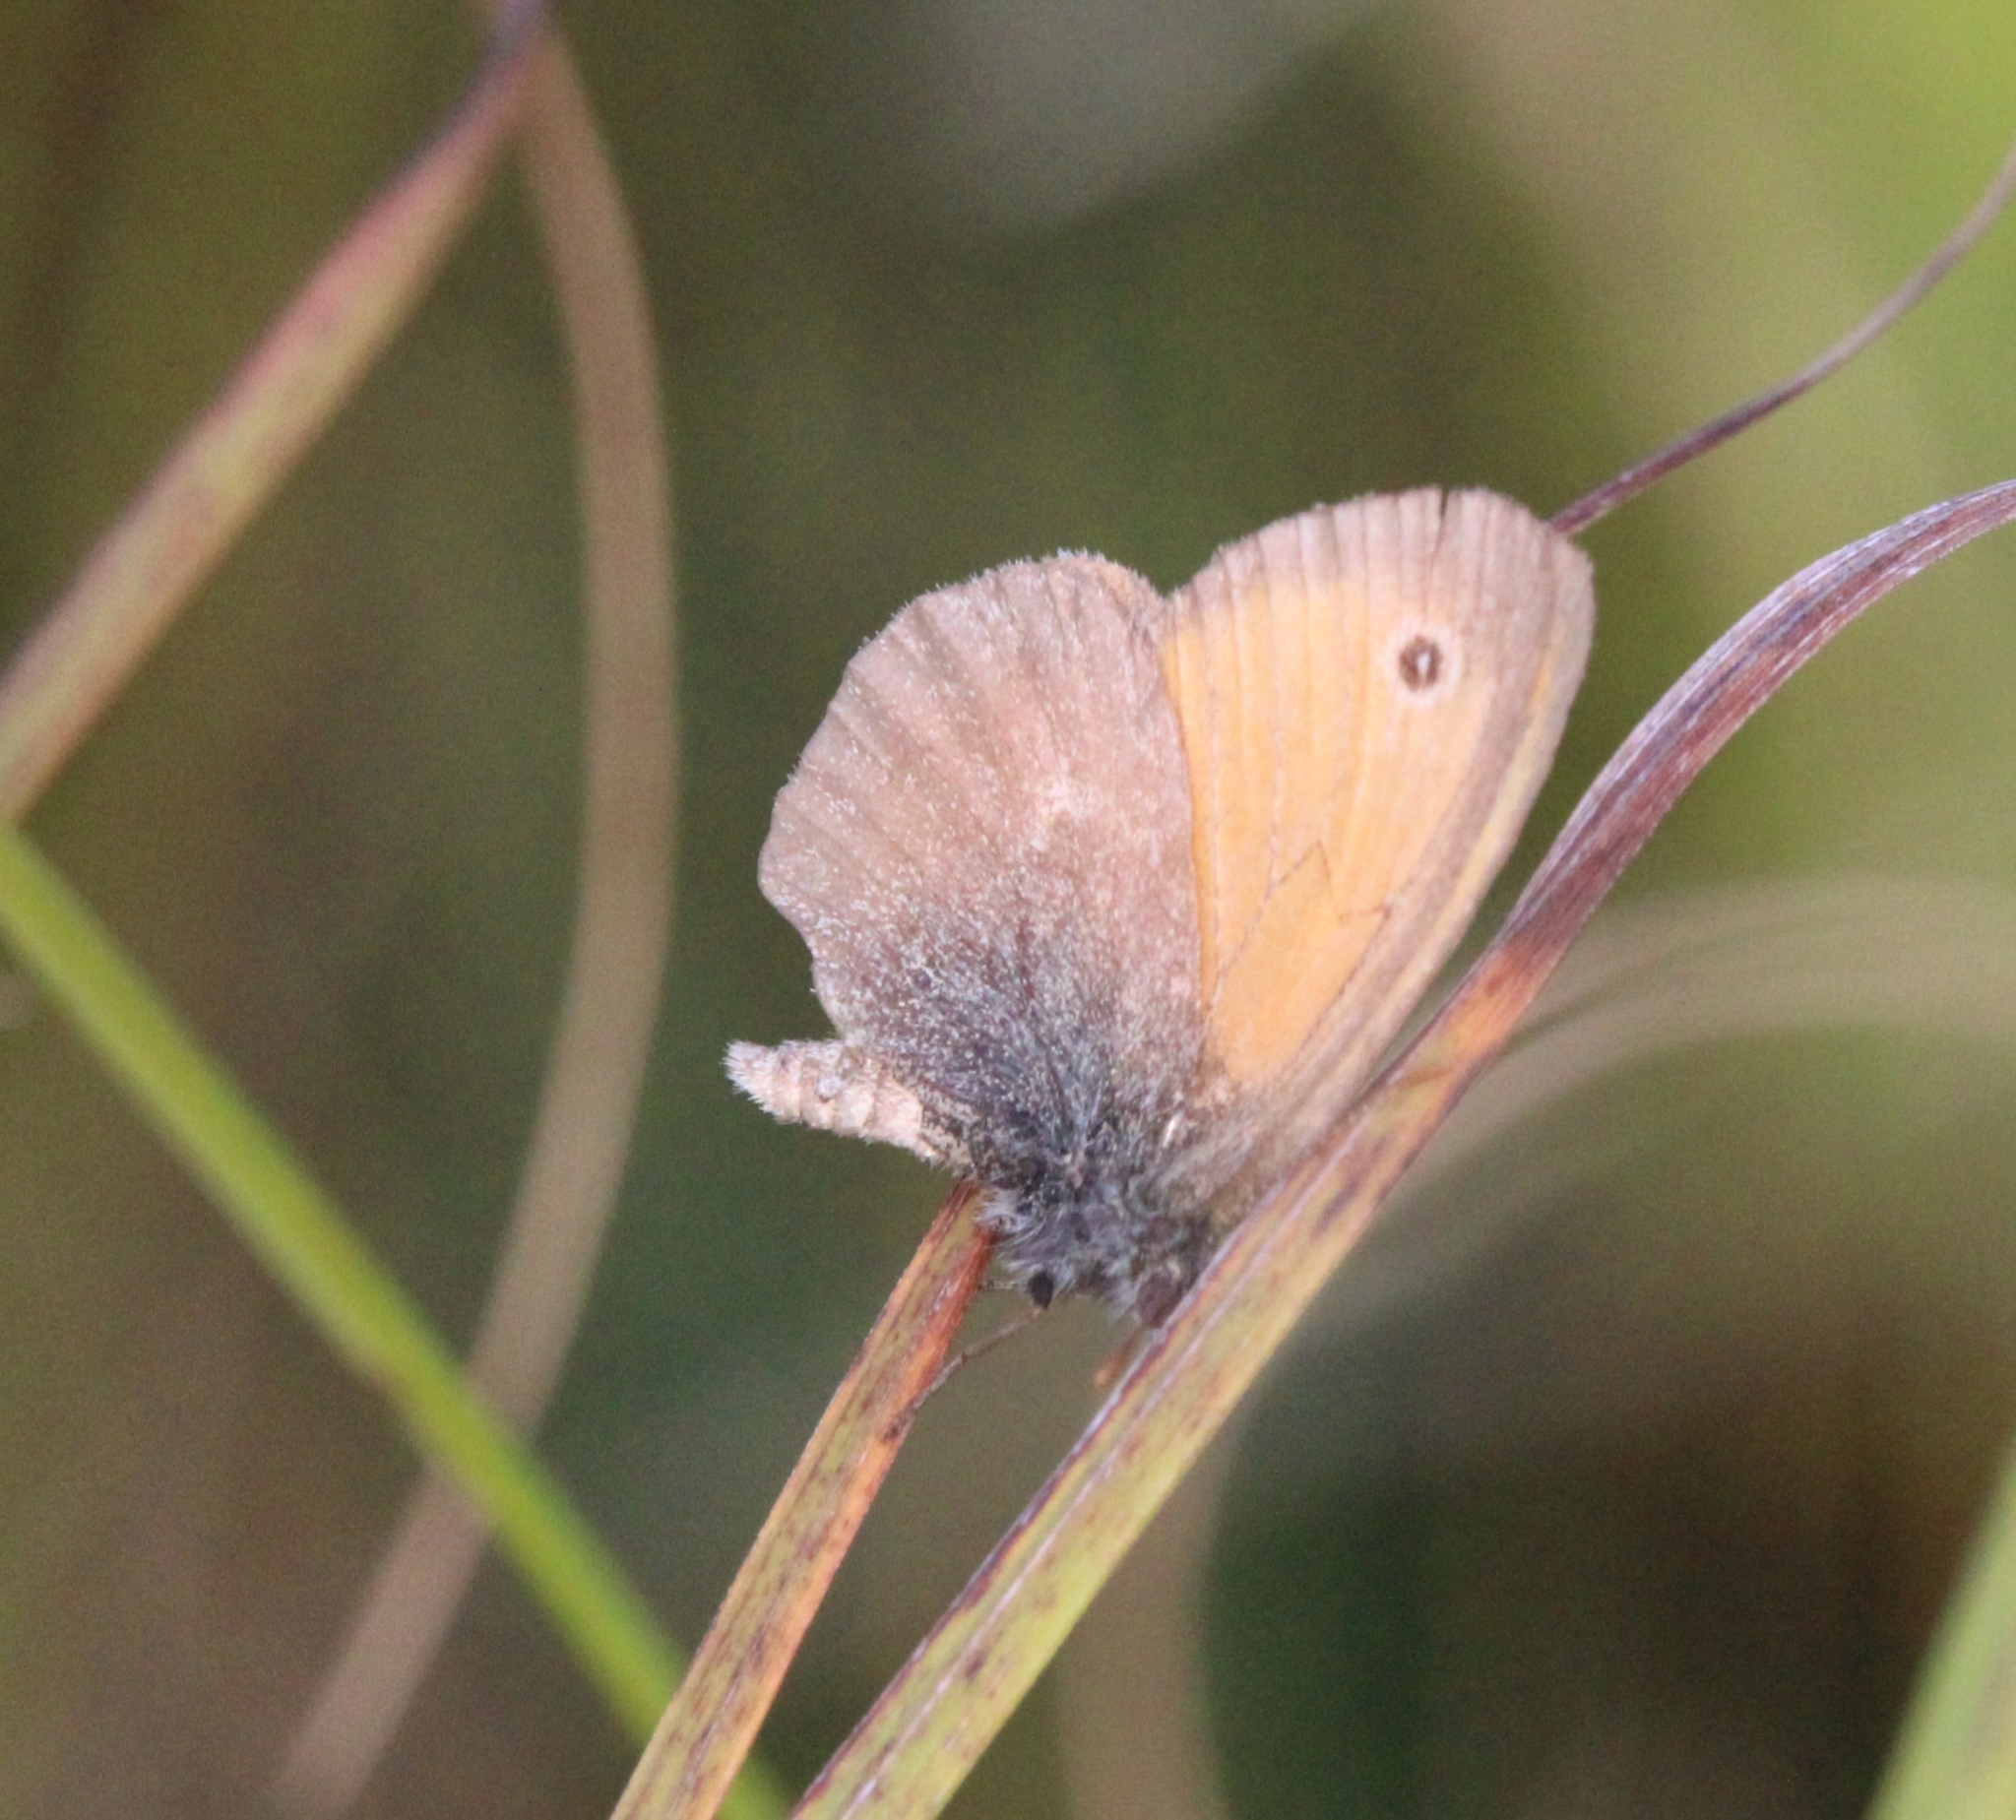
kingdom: Animalia
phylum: Arthropoda
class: Insecta
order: Lepidoptera
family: Nymphalidae
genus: Coenonympha
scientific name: Coenonympha pamphilus
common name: Small heath
